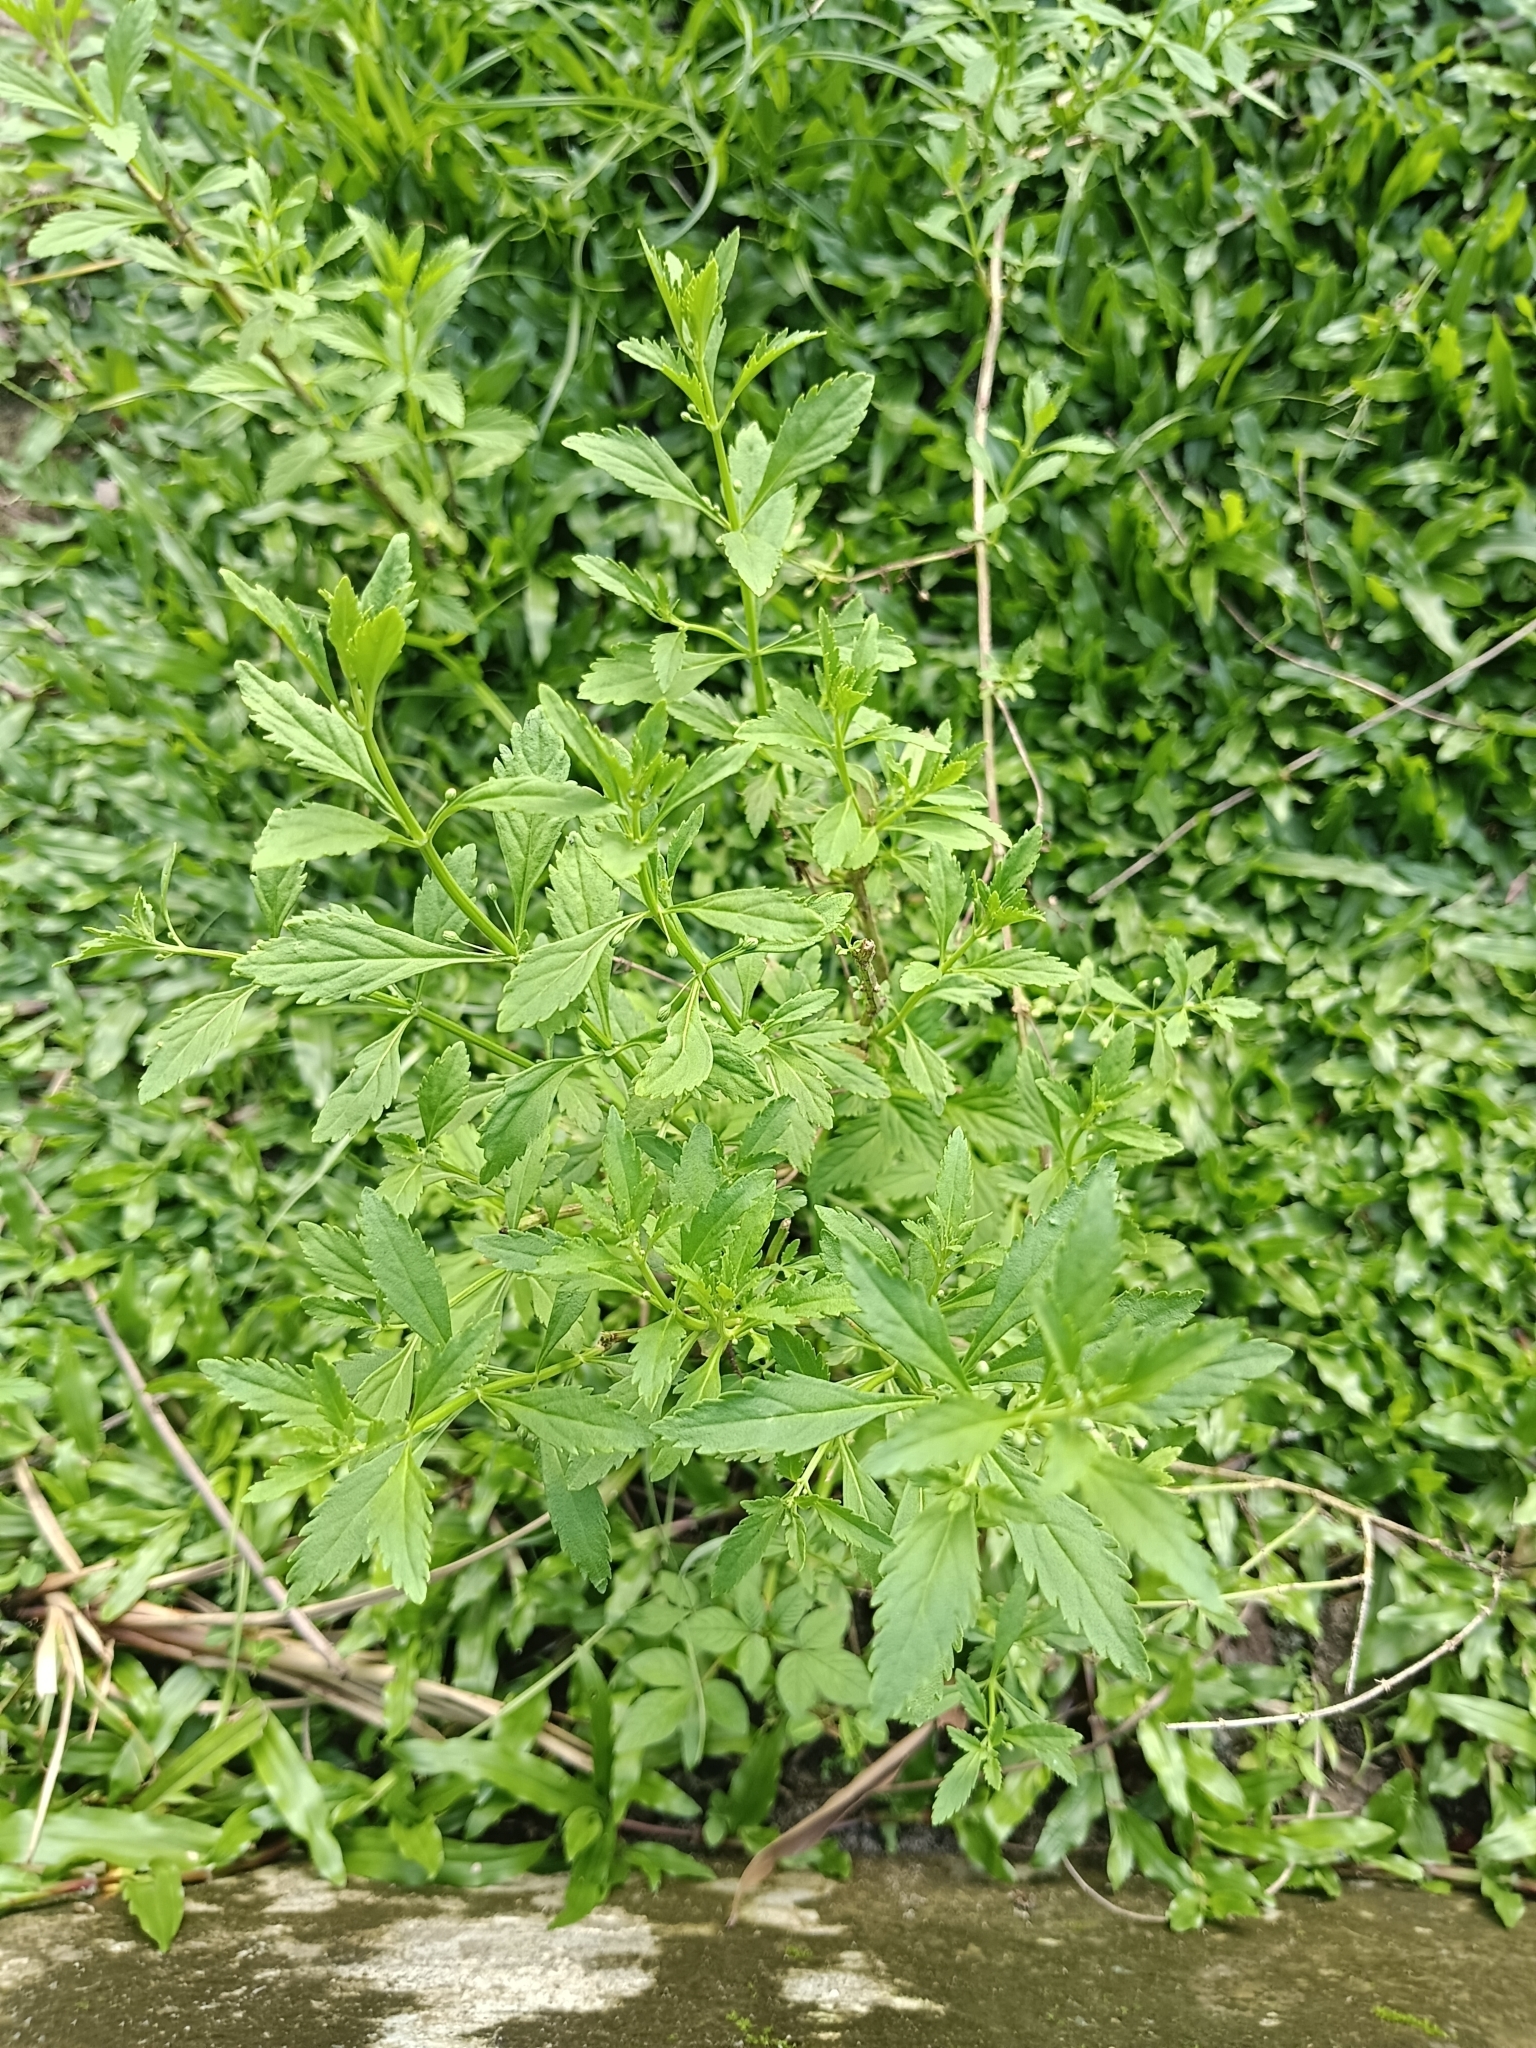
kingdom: Plantae
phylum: Tracheophyta
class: Magnoliopsida
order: Lamiales
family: Plantaginaceae
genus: Scoparia
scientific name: Scoparia dulcis
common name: Scoparia-weed
